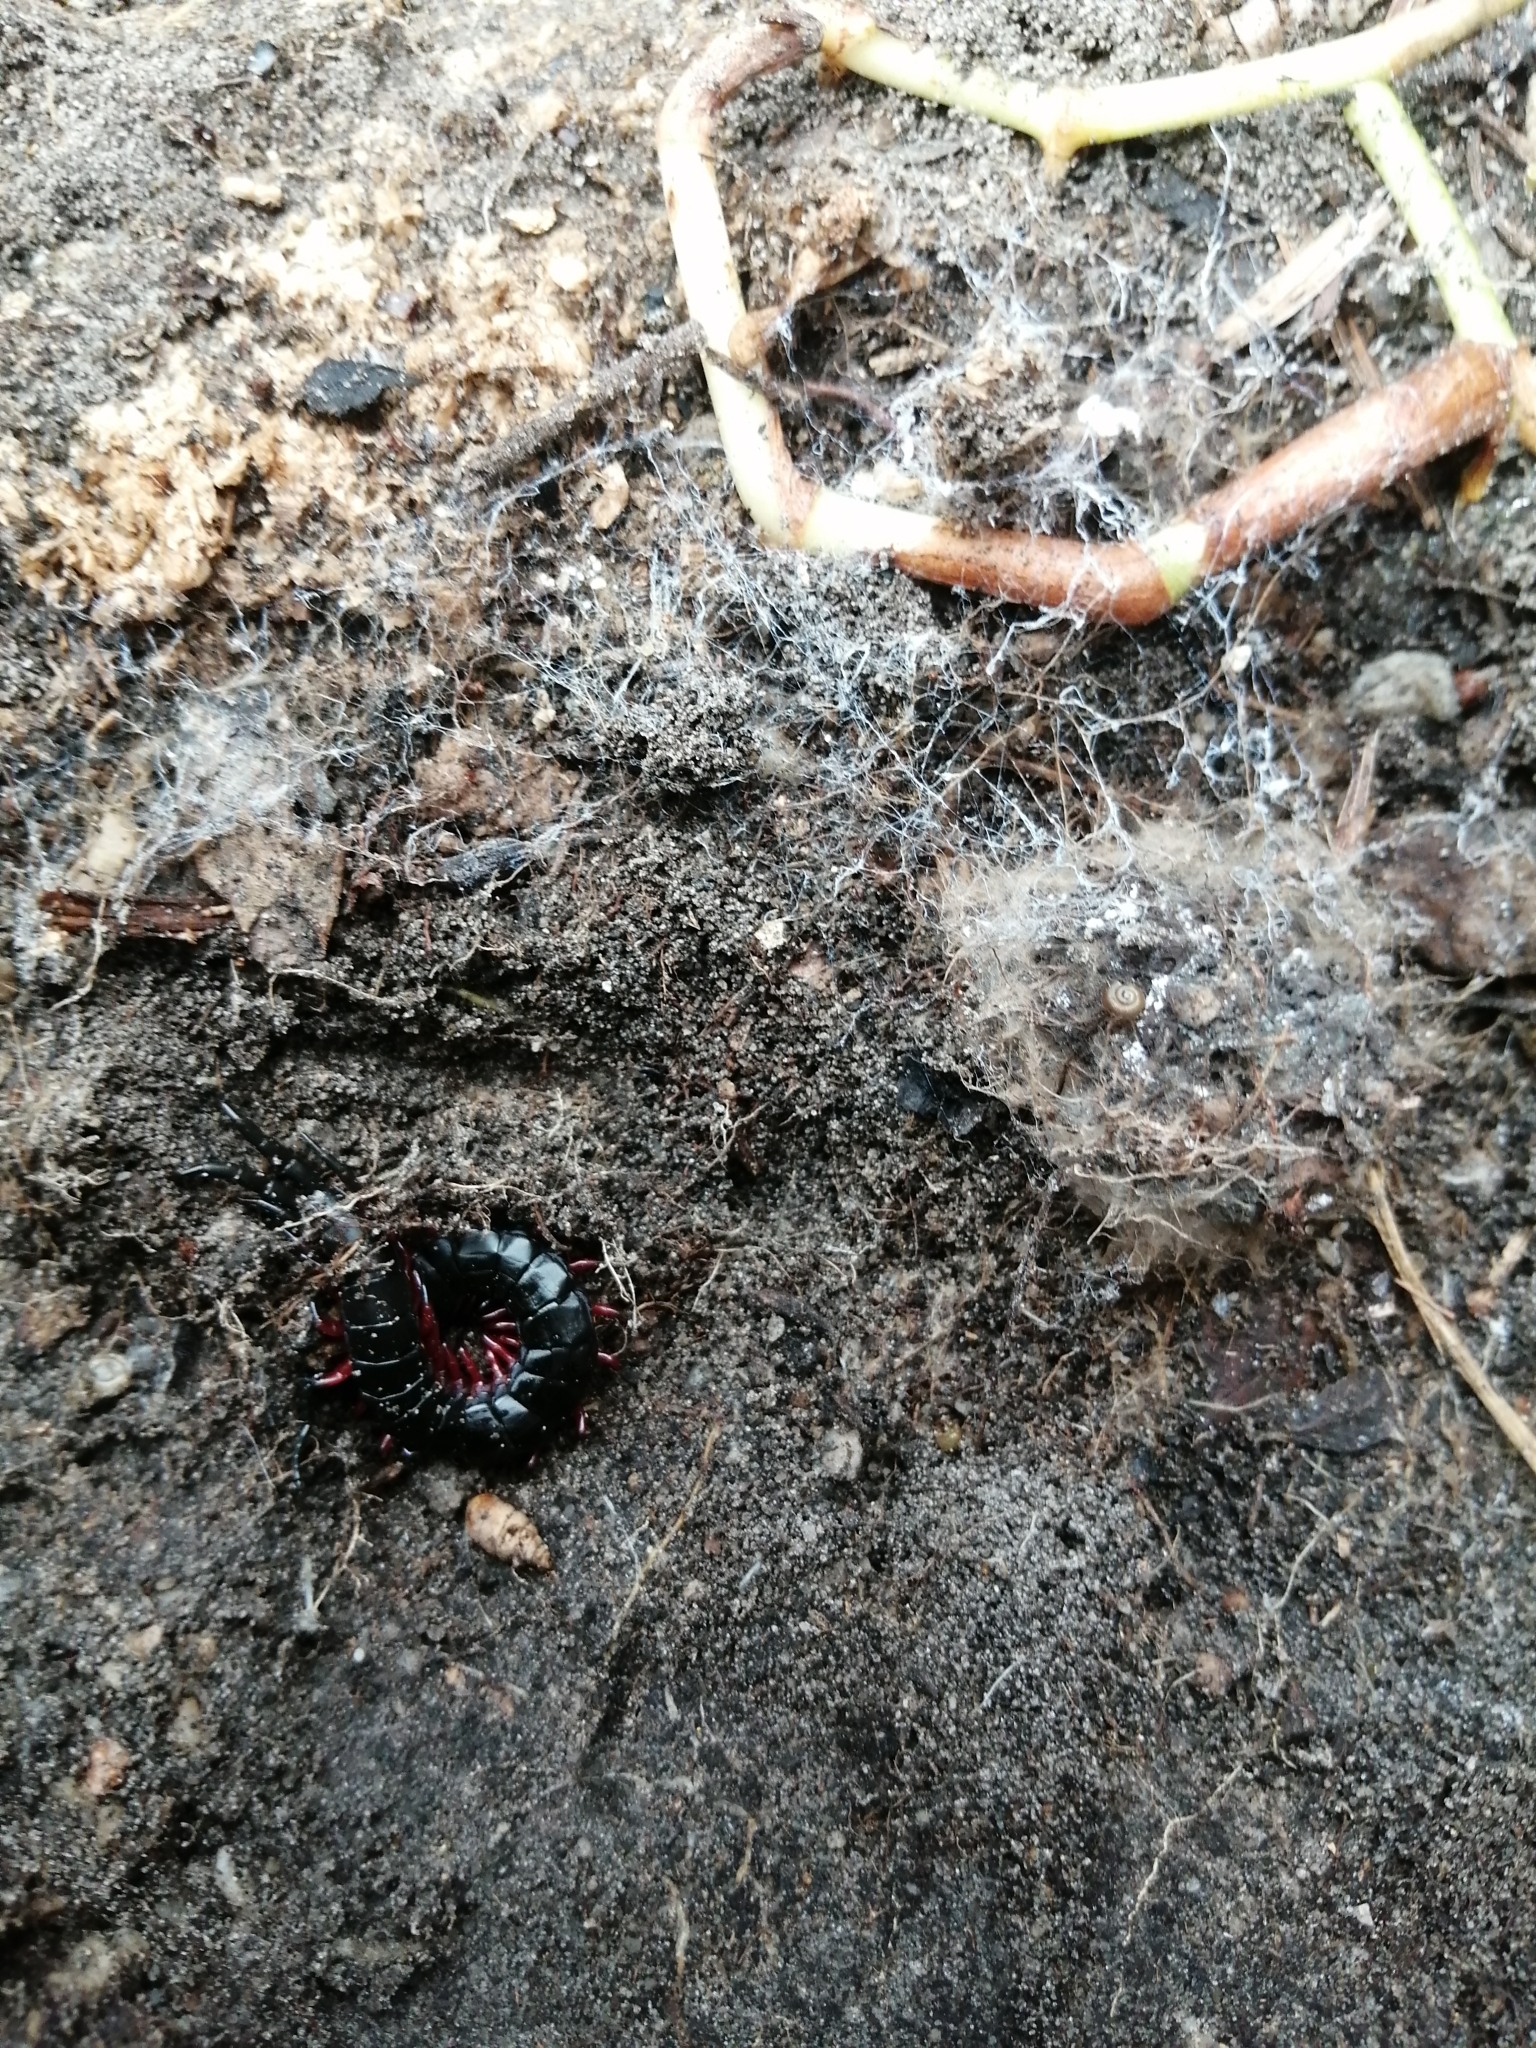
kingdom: Animalia
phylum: Arthropoda
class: Chilopoda
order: Scolopendromorpha
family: Scolopendridae
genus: Cormocephalus
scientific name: Cormocephalus nitidus
